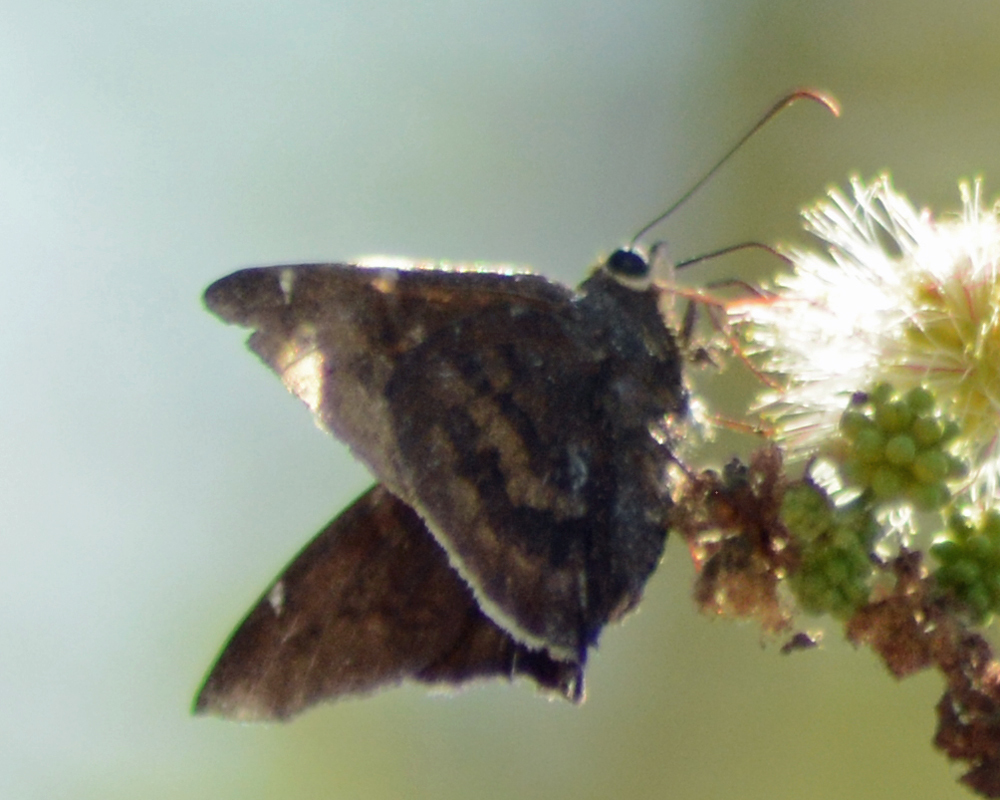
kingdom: Animalia
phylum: Arthropoda
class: Insecta
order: Lepidoptera
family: Hesperiidae
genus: Achalarus
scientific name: Achalarus Murgaria albociliatus
